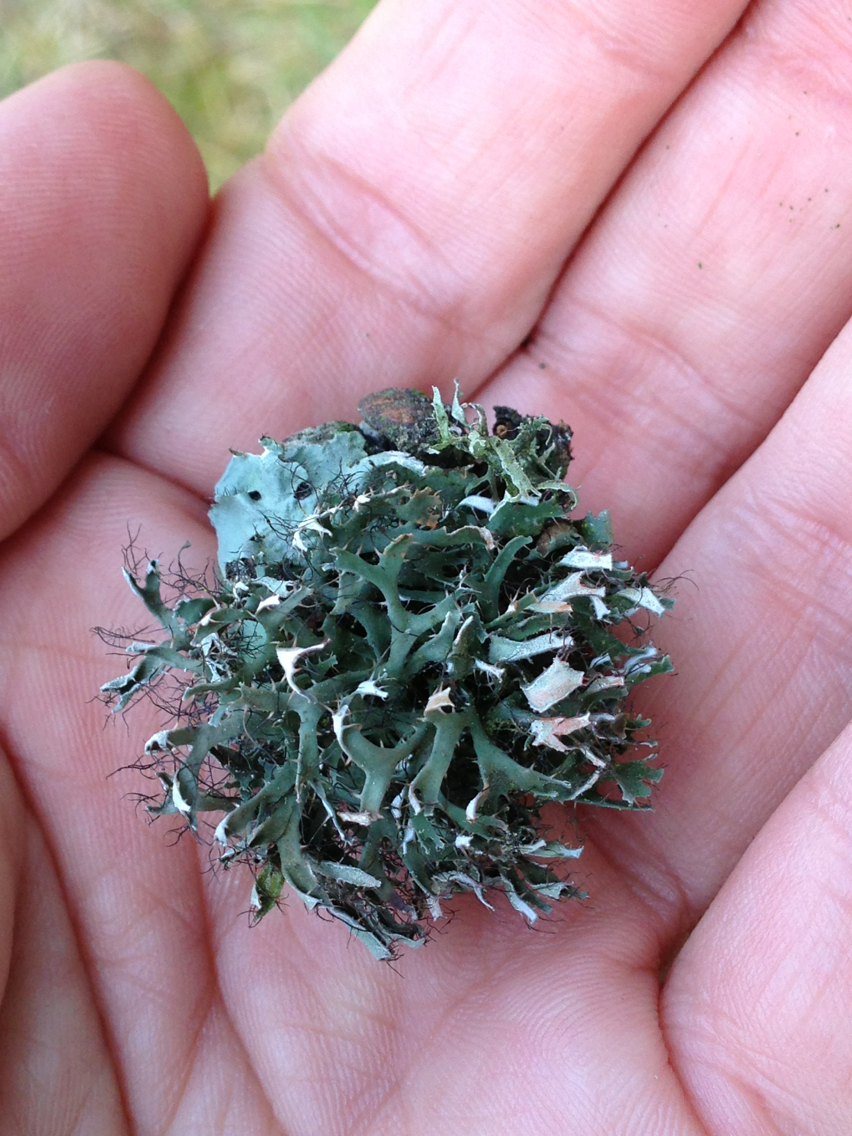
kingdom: Fungi
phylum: Ascomycota
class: Lecanoromycetes
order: Caliciales
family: Physciaceae
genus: Leucodermia
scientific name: Leucodermia leucomelos
